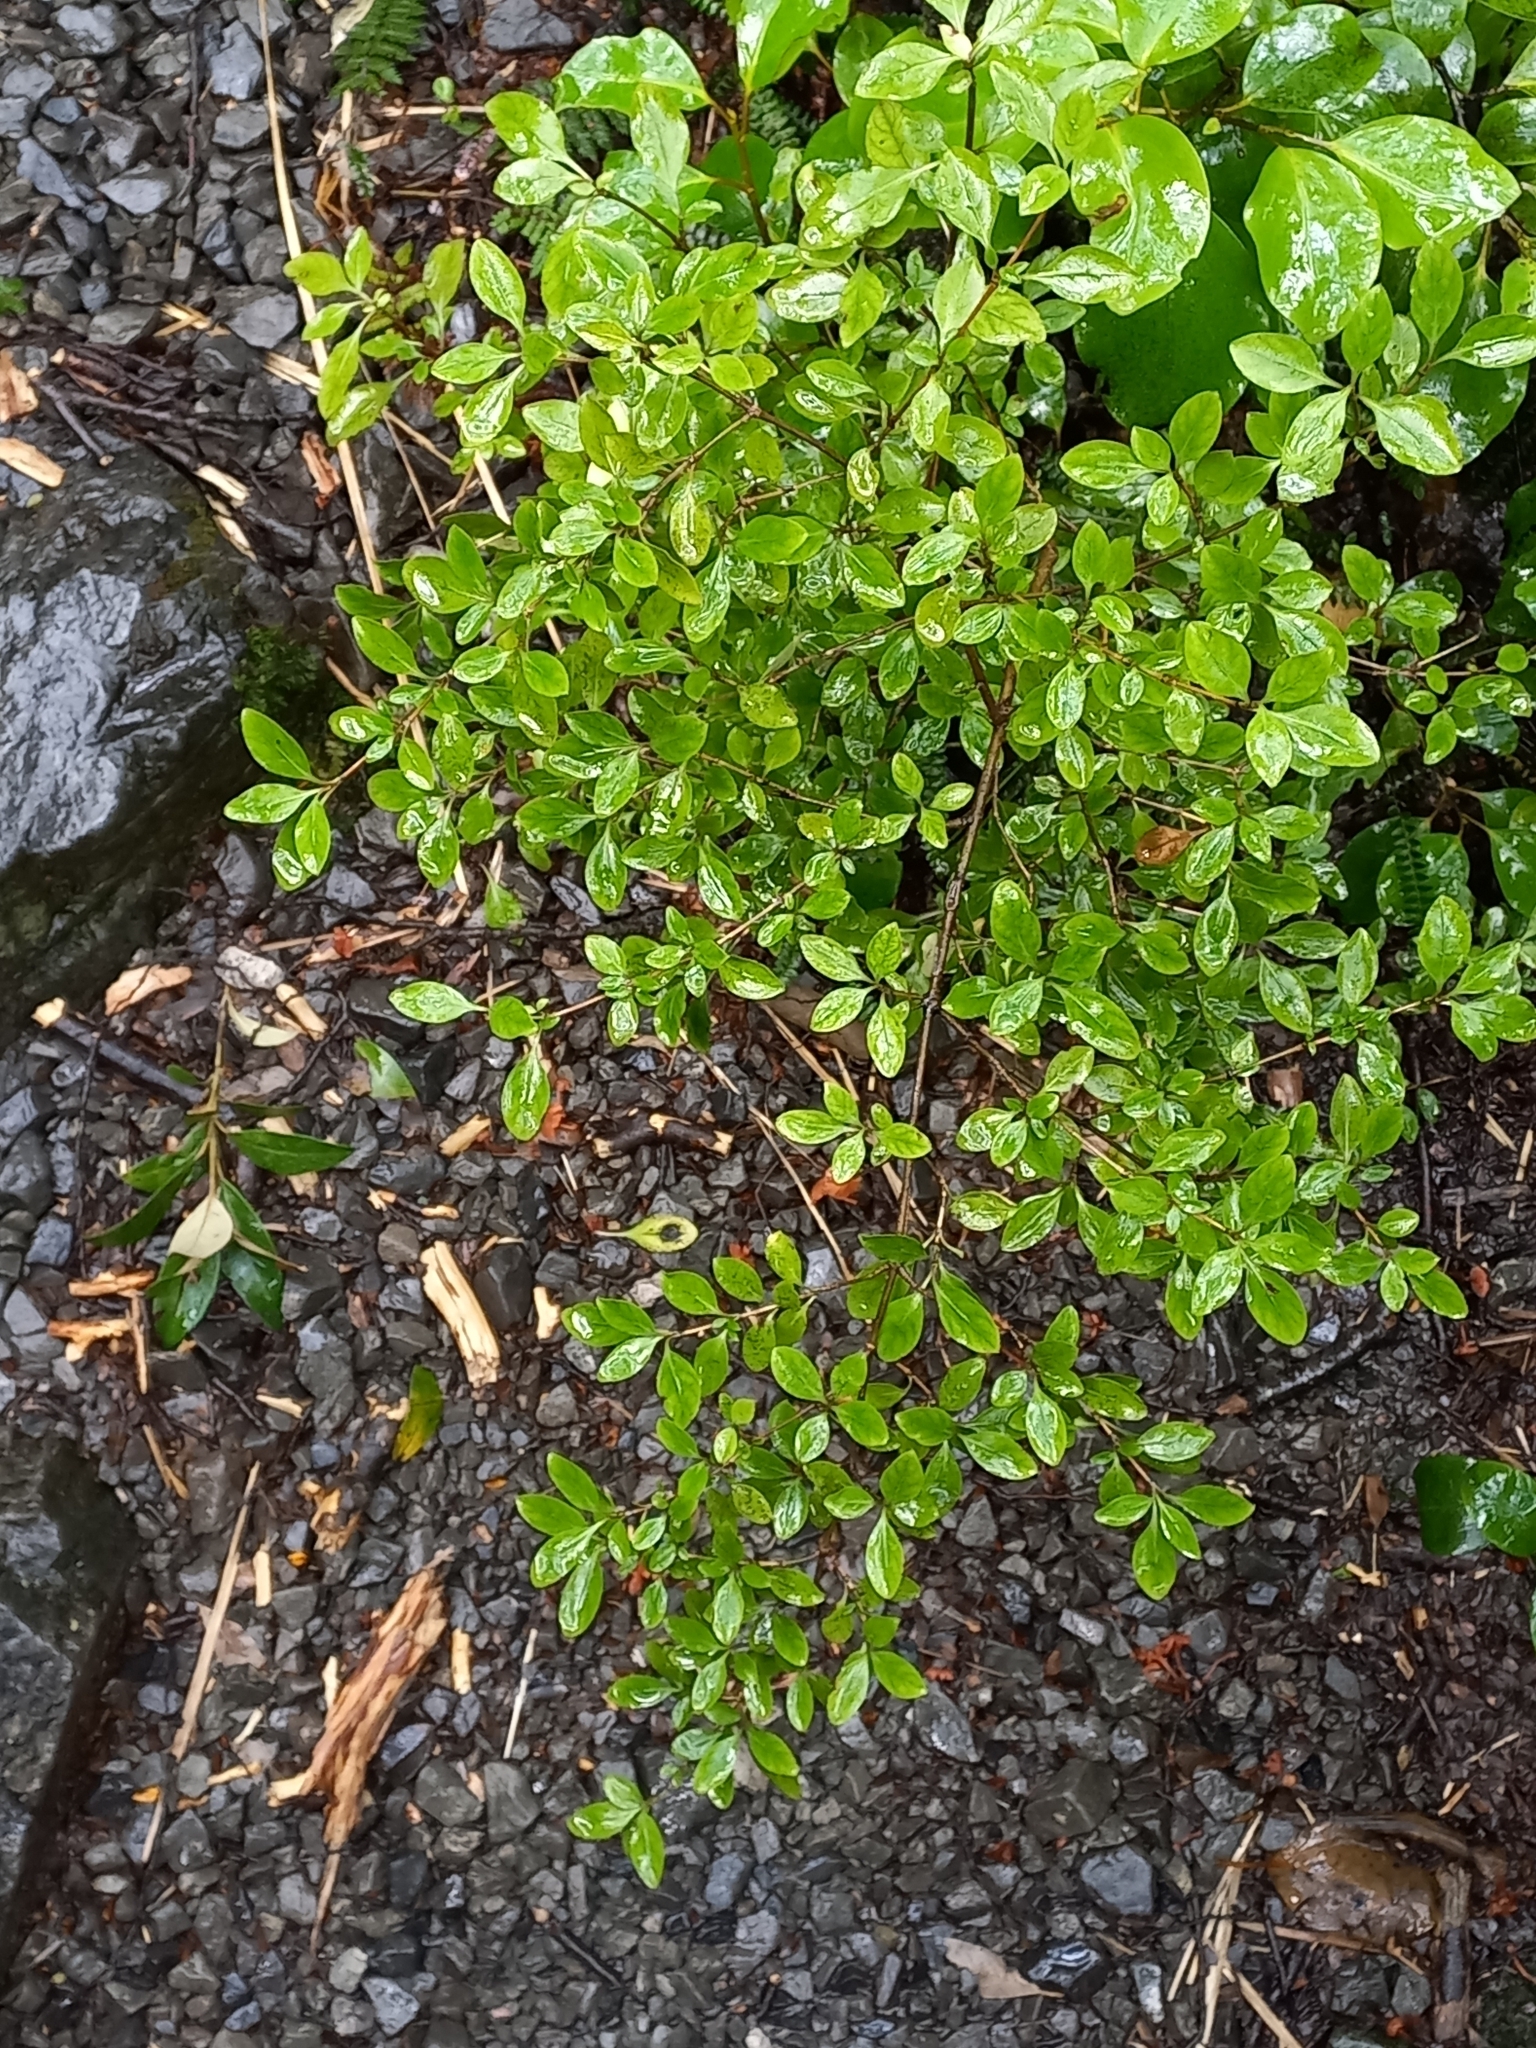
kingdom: Plantae
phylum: Tracheophyta
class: Magnoliopsida
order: Gentianales
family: Rubiaceae
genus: Coprosma
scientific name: Coprosma foetidissima
